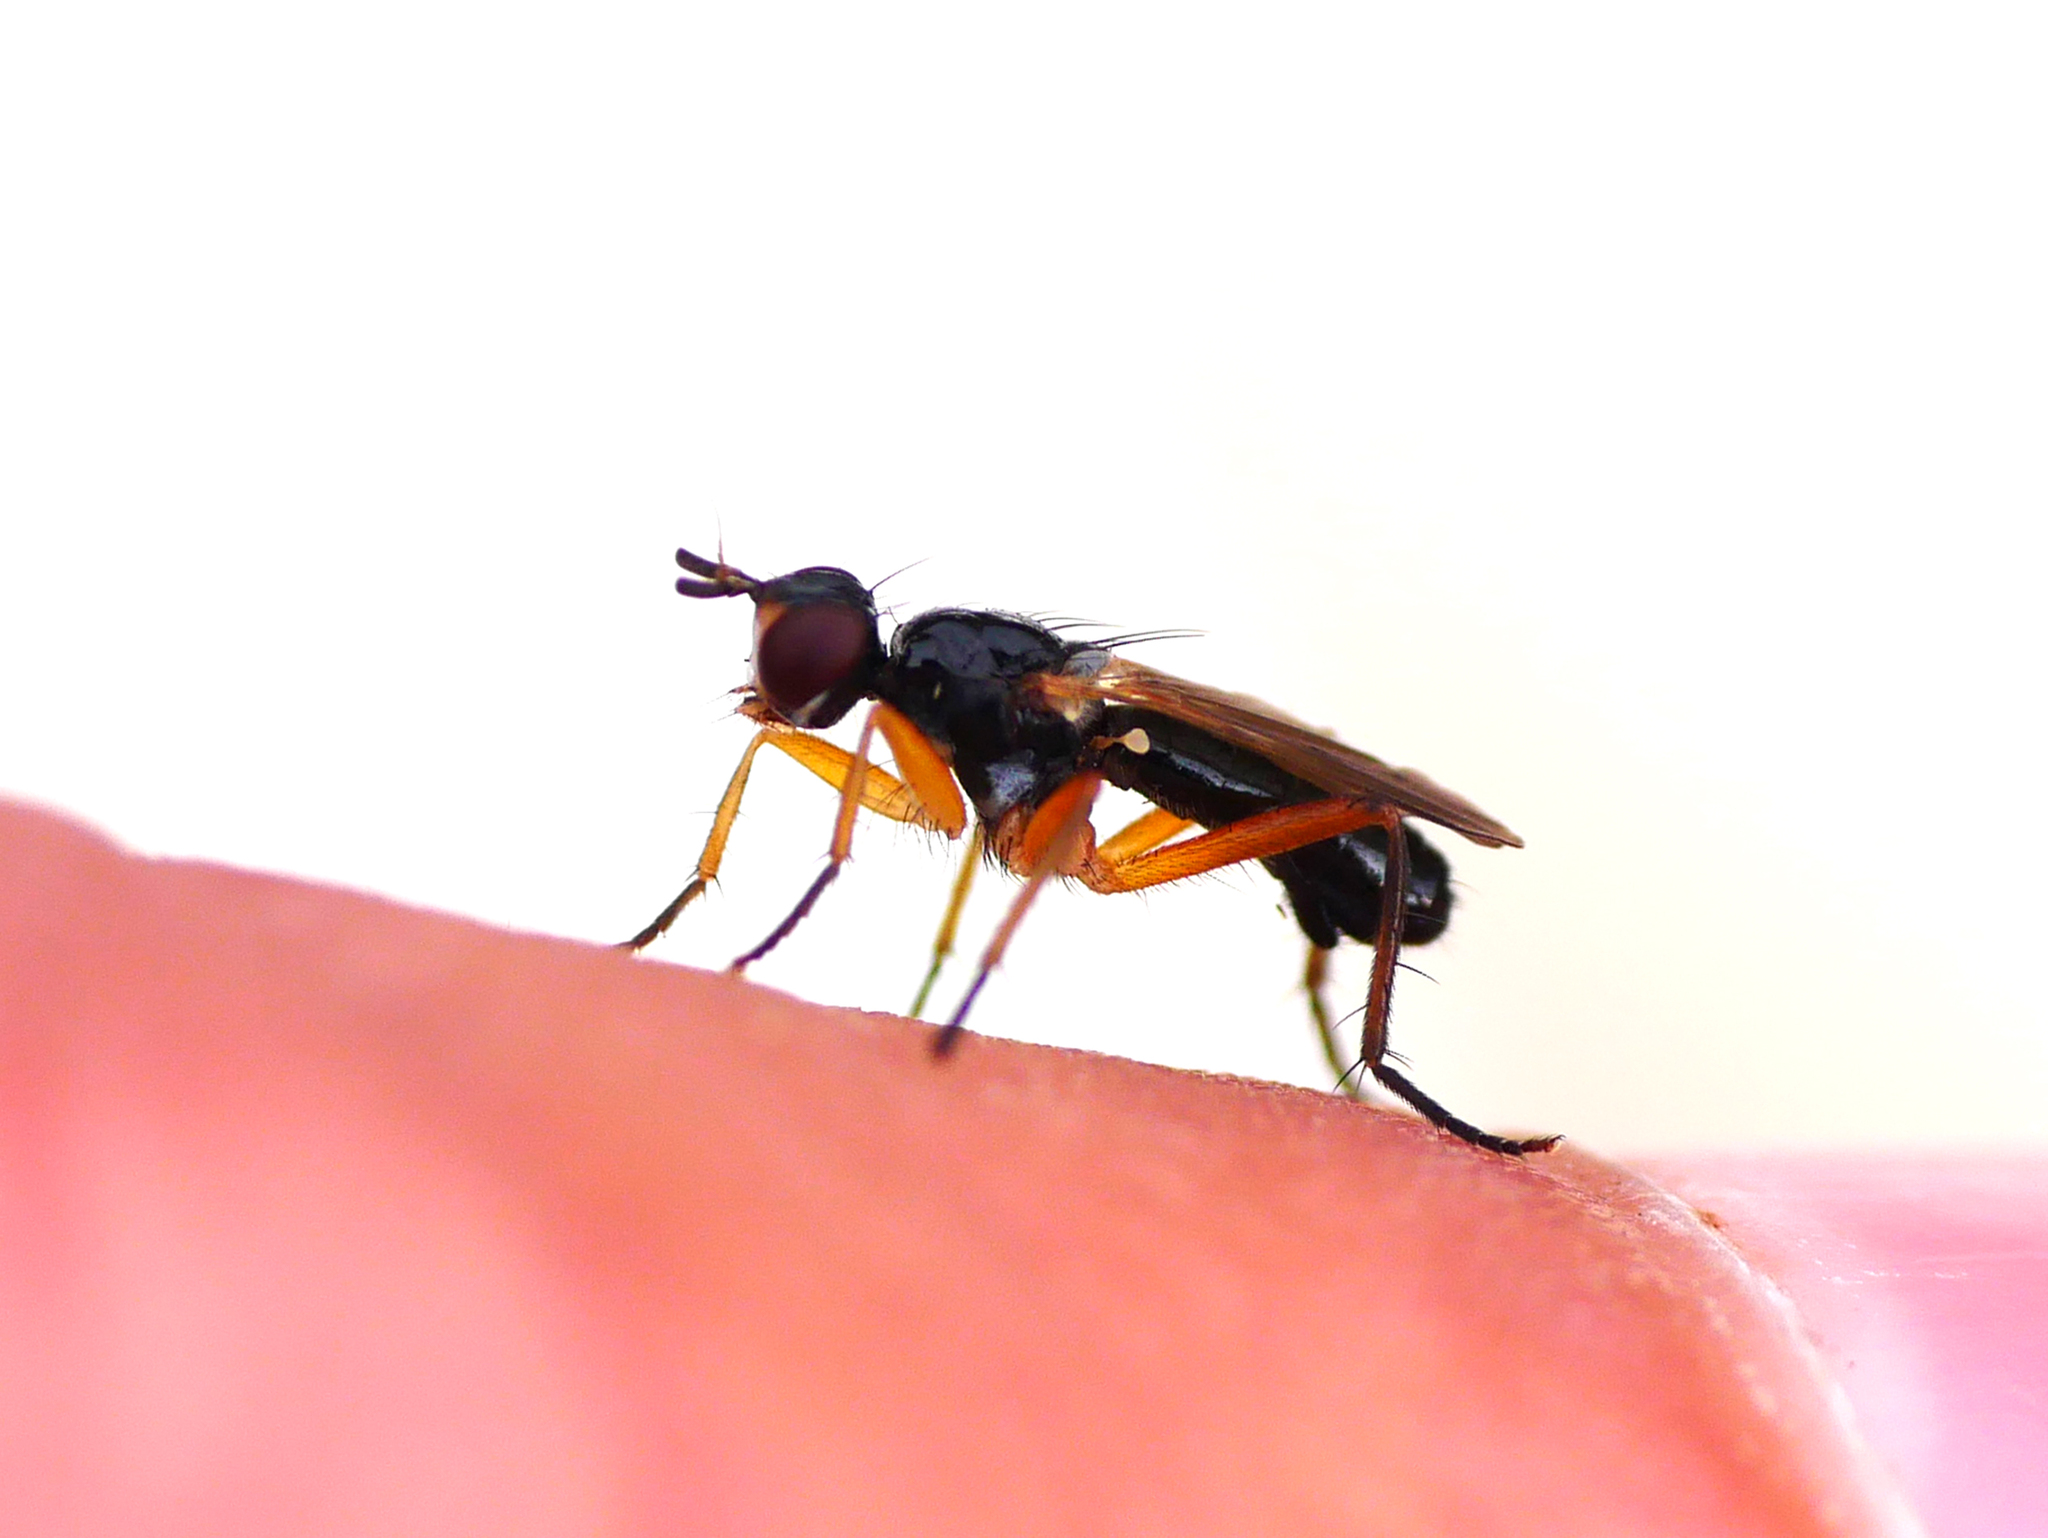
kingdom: Animalia
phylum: Arthropoda
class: Insecta
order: Diptera
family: Scathophagidae
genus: Cordilura
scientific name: Cordilura albilabris
